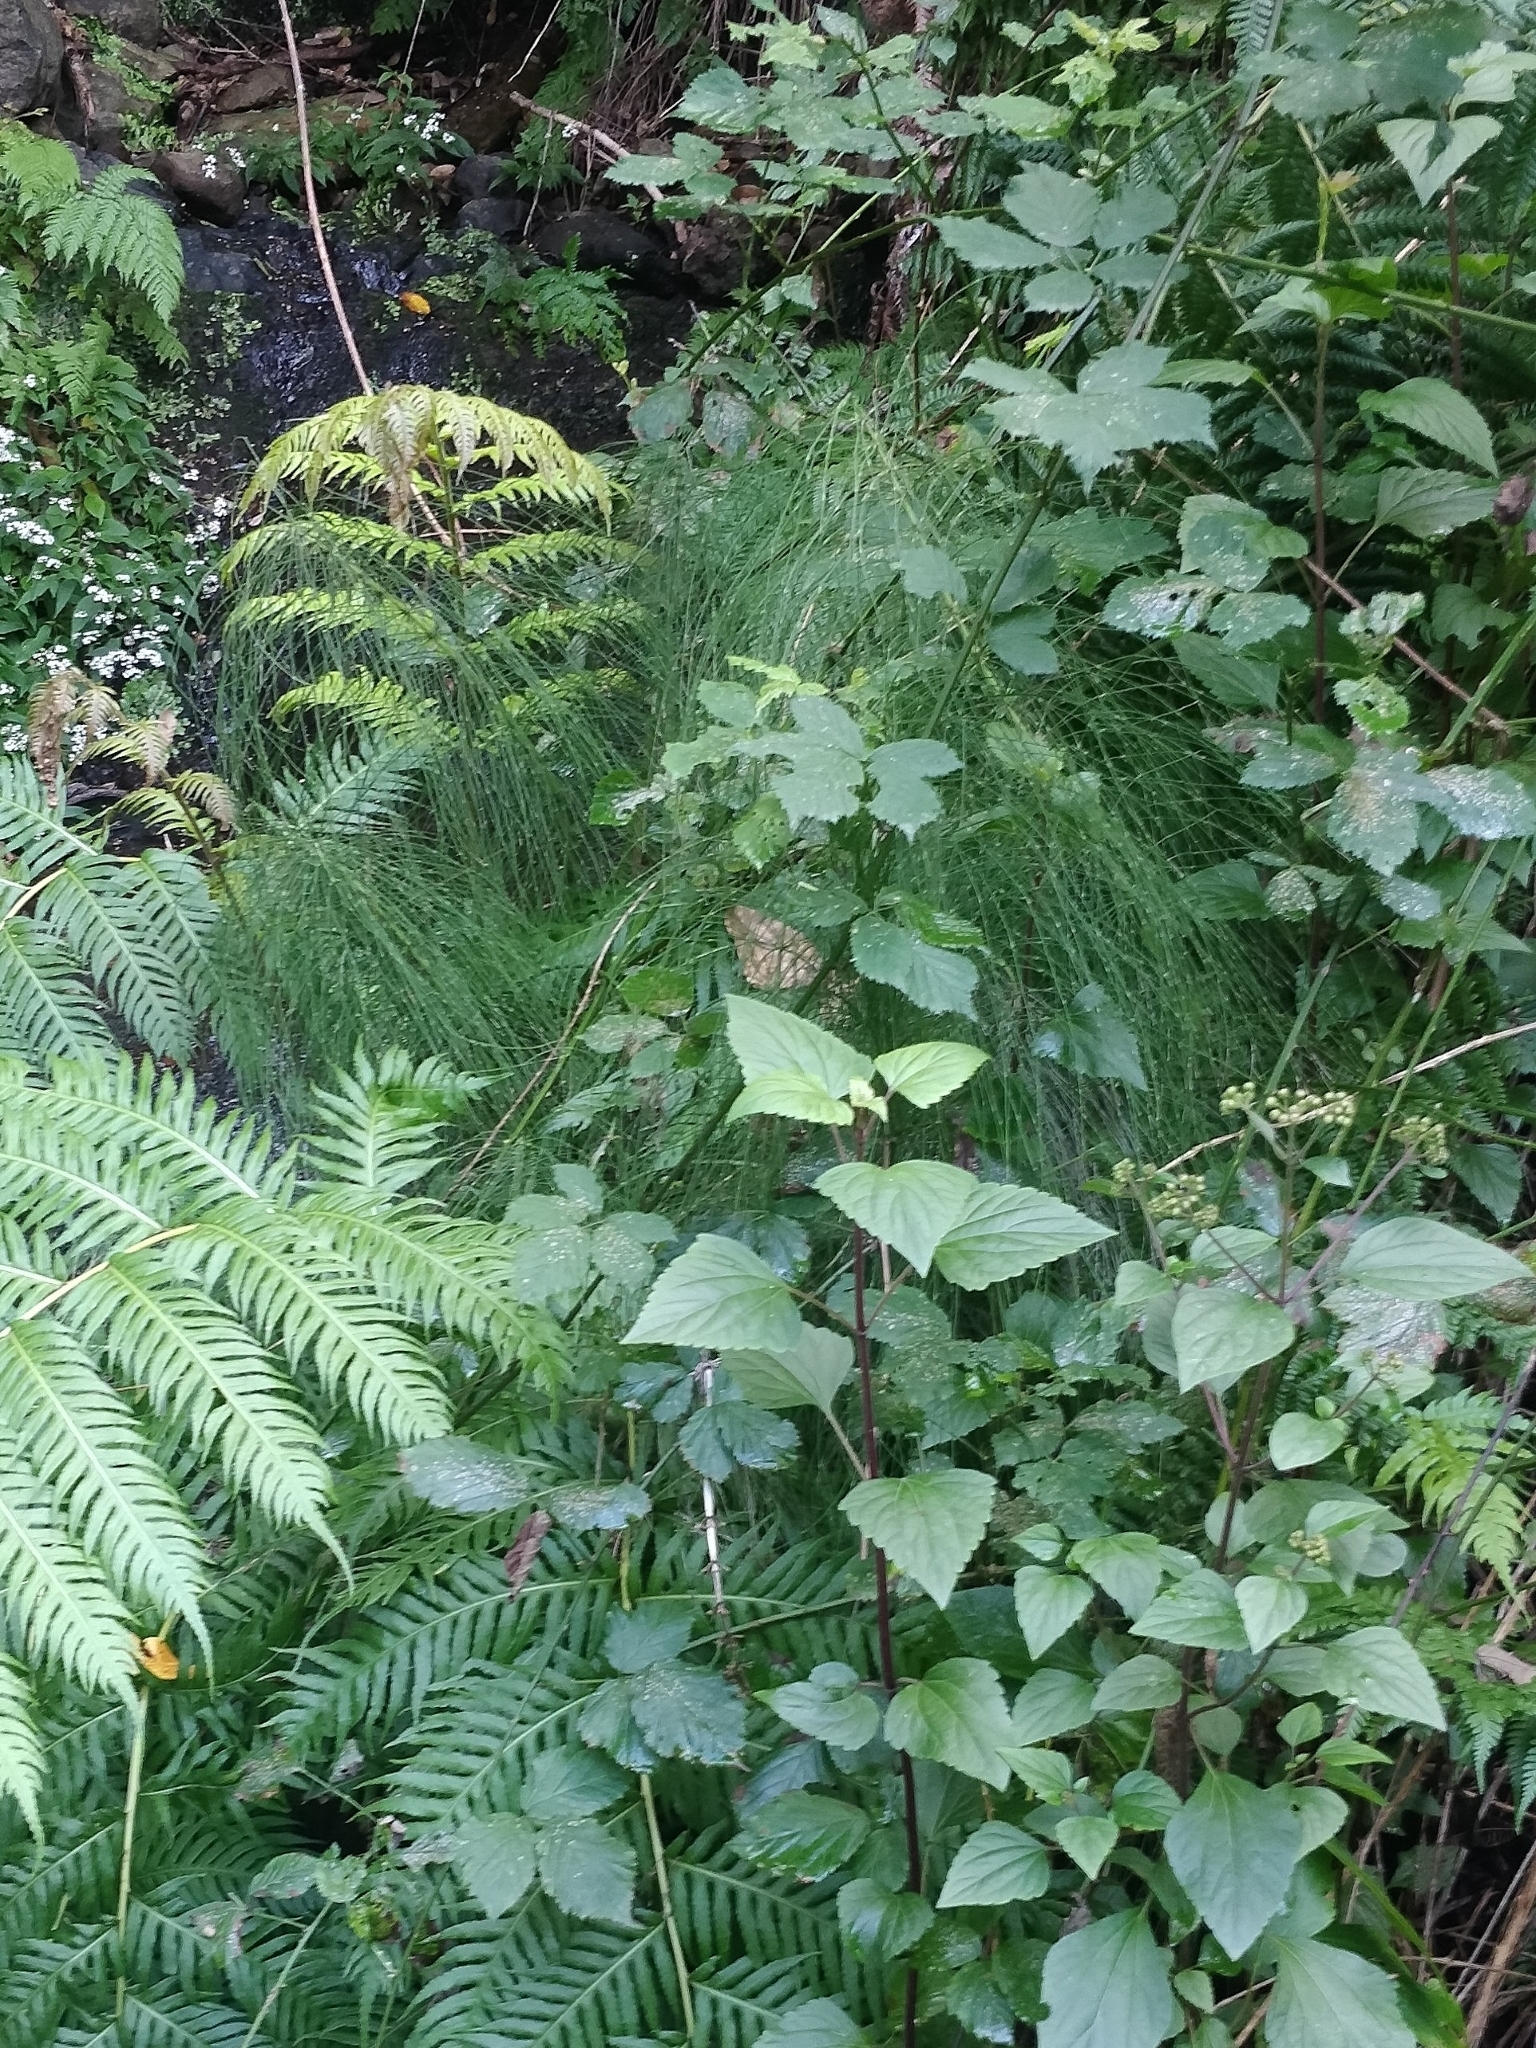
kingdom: Plantae
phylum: Tracheophyta
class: Polypodiopsida
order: Equisetales
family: Equisetaceae
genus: Equisetum
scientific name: Equisetum telmateia
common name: Great horsetail
